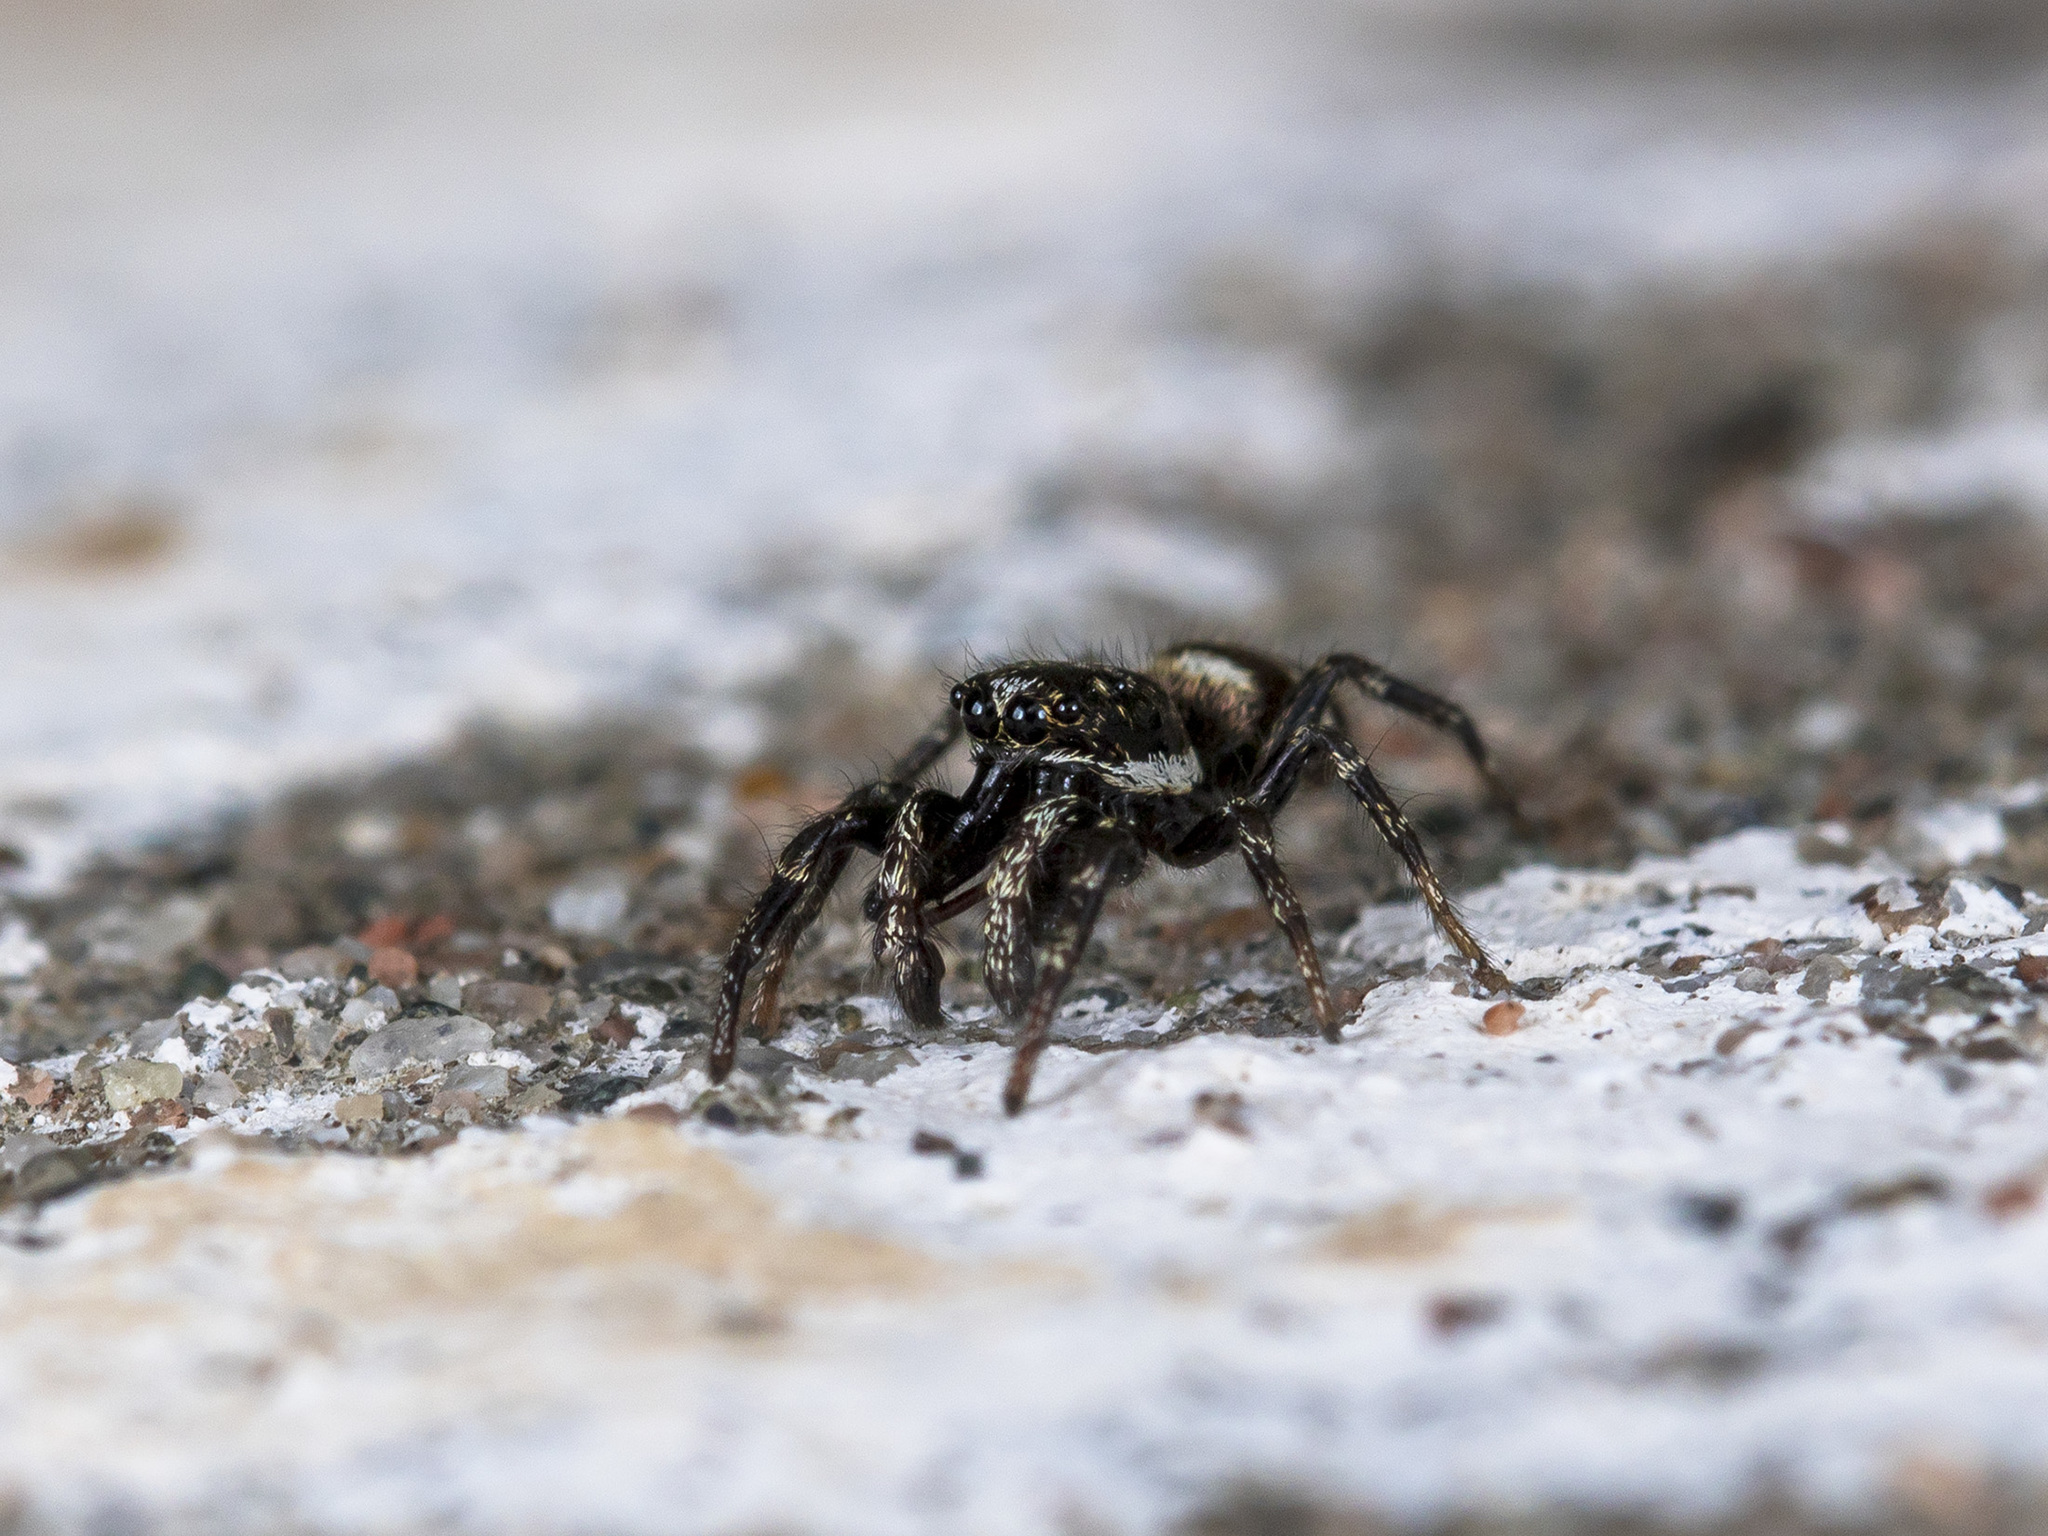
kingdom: Animalia
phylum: Arthropoda
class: Arachnida
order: Araneae
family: Salticidae
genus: Salticus
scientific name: Salticus scenicus
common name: Zebra jumper
